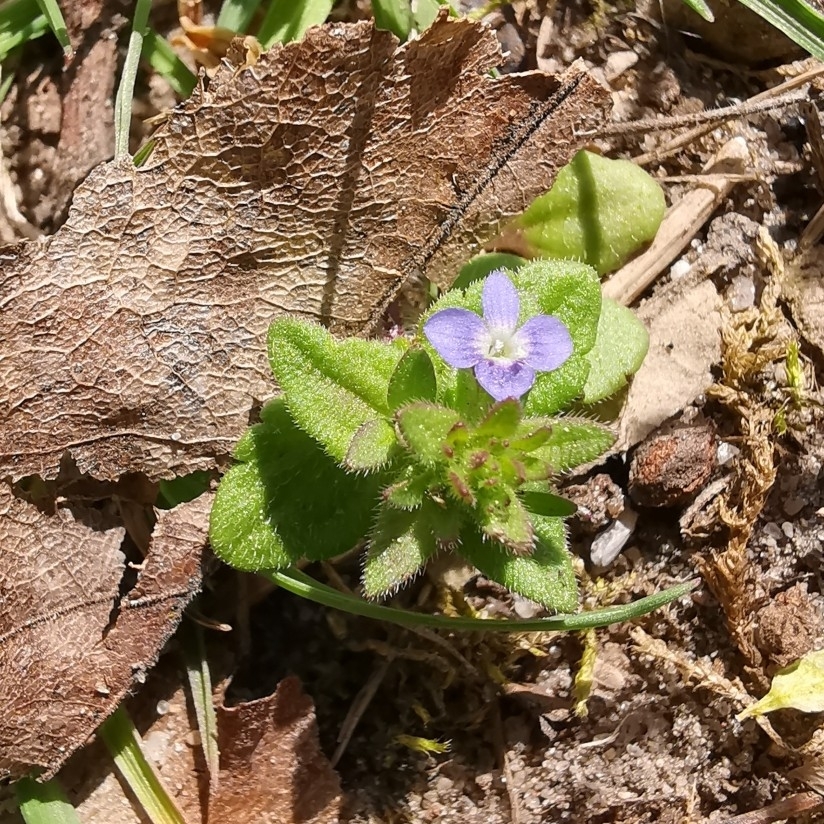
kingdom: Plantae
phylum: Tracheophyta
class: Magnoliopsida
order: Lamiales
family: Plantaginaceae
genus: Veronica
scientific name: Veronica arvensis
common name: Corn speedwell
